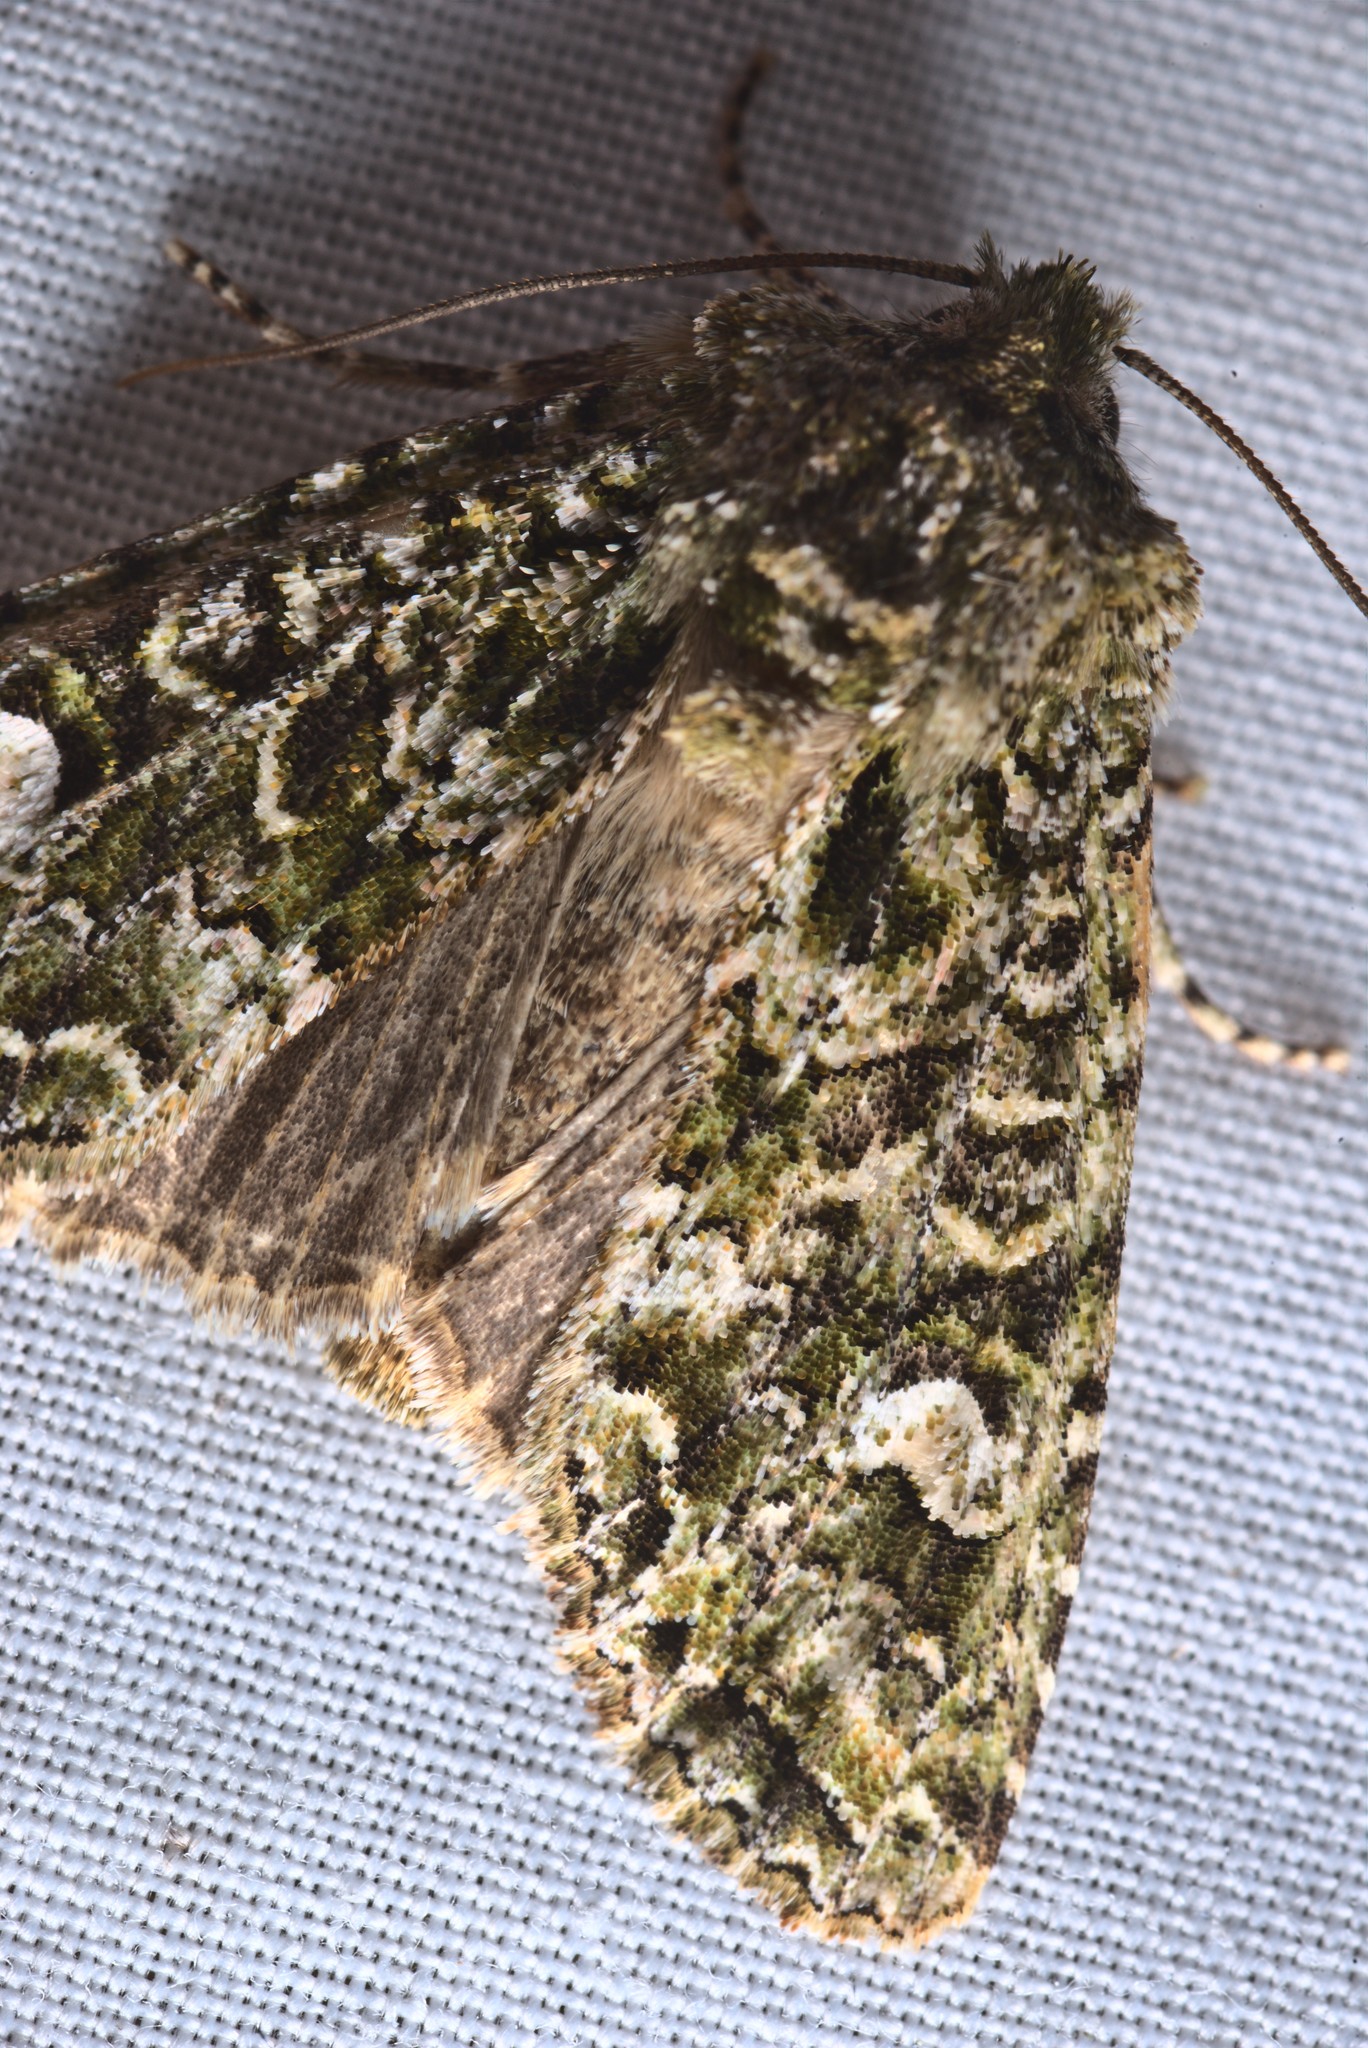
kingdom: Animalia
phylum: Arthropoda
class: Insecta
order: Lepidoptera
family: Noctuidae
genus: Ichneutica
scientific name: Ichneutica
